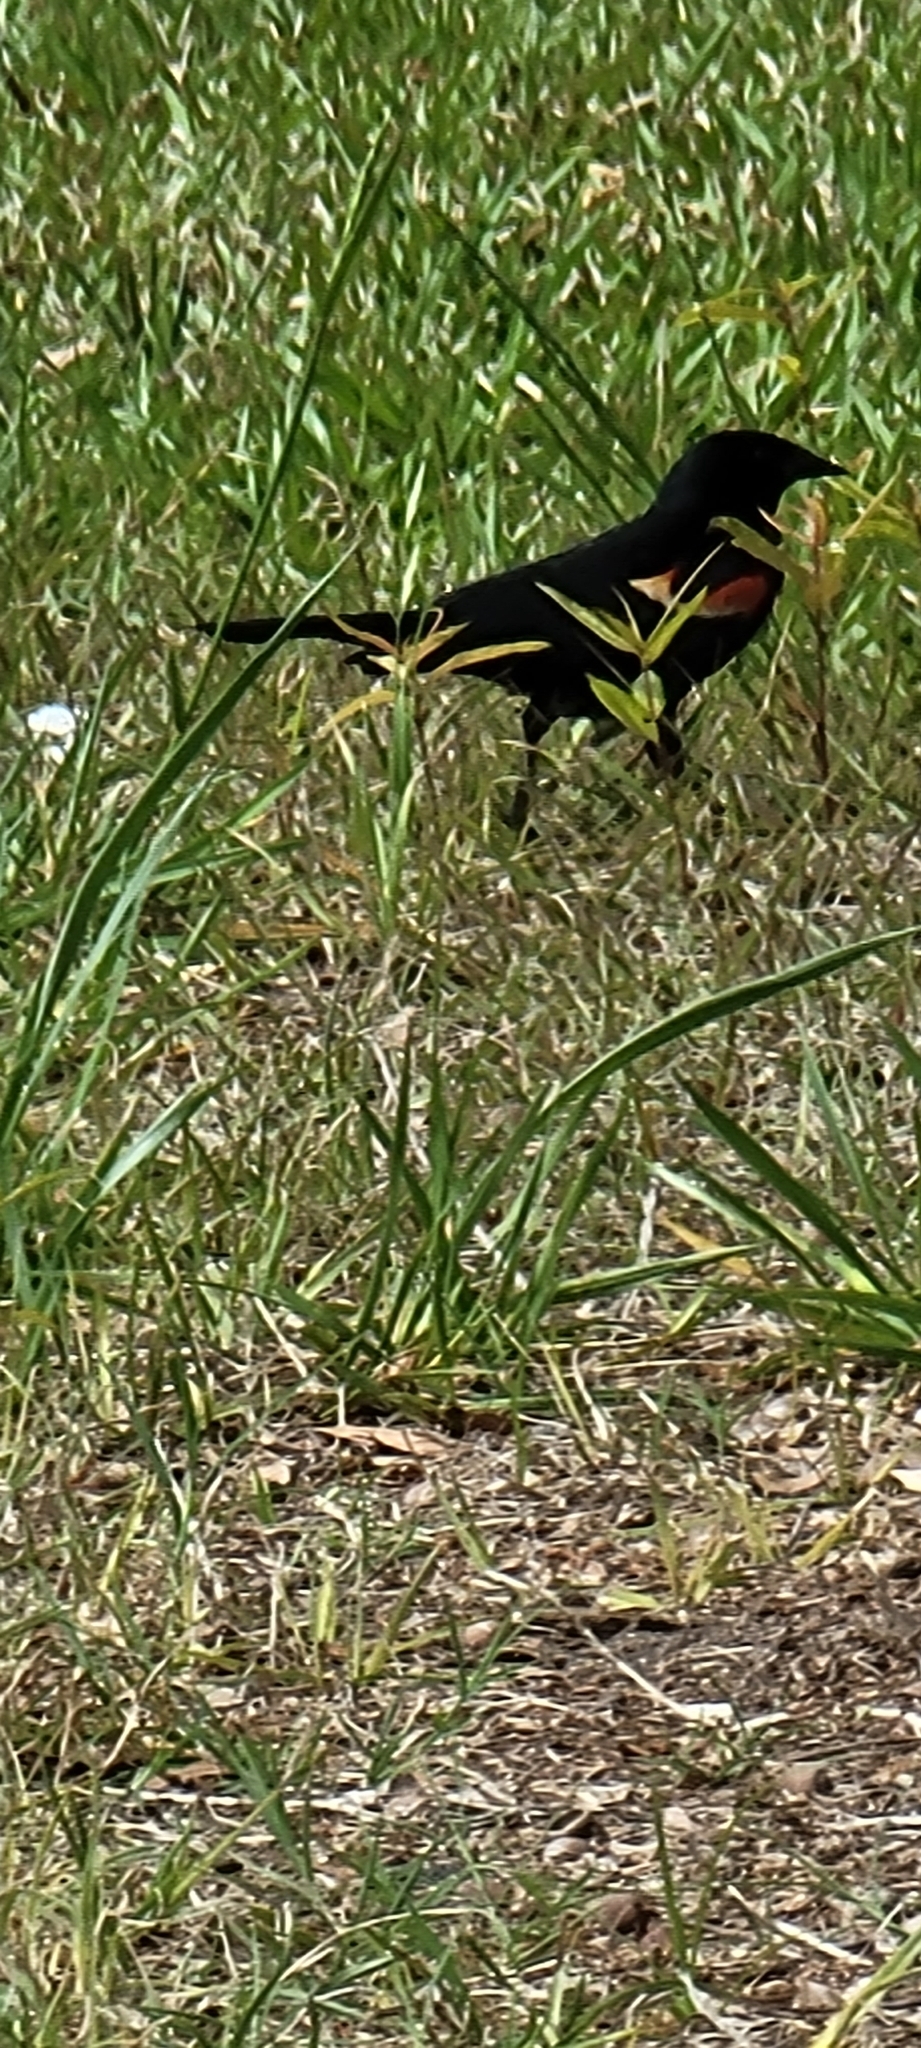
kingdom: Animalia
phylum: Chordata
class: Aves
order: Passeriformes
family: Icteridae
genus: Agelaius
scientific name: Agelaius phoeniceus
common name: Red-winged blackbird
